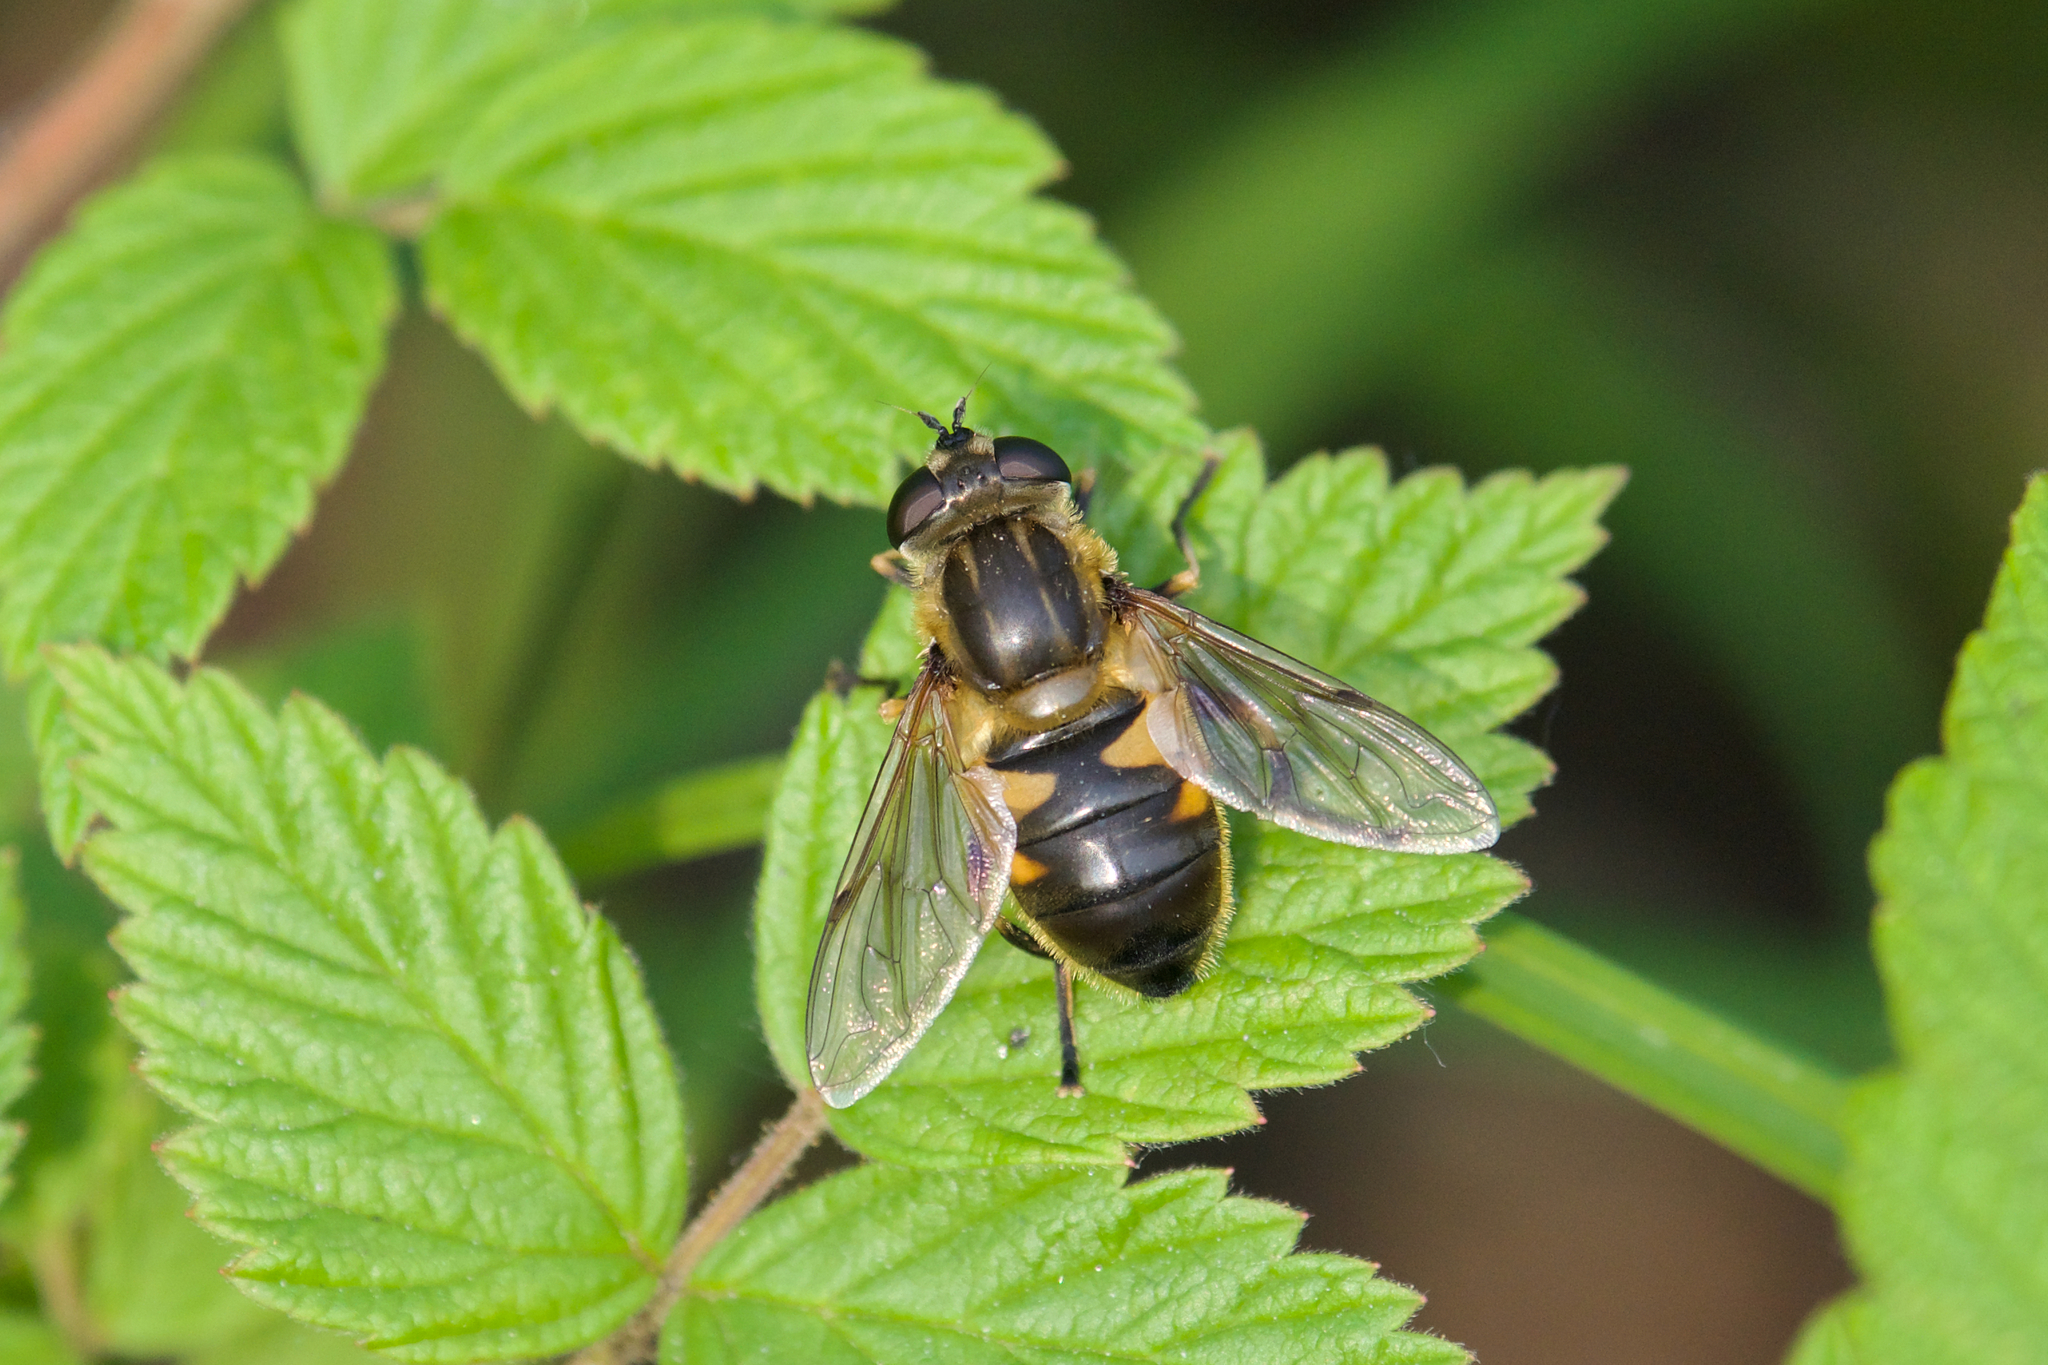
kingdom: Animalia
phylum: Arthropoda
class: Insecta
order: Diptera
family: Syrphidae
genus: Helophilus
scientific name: Helophilus lapponicus
